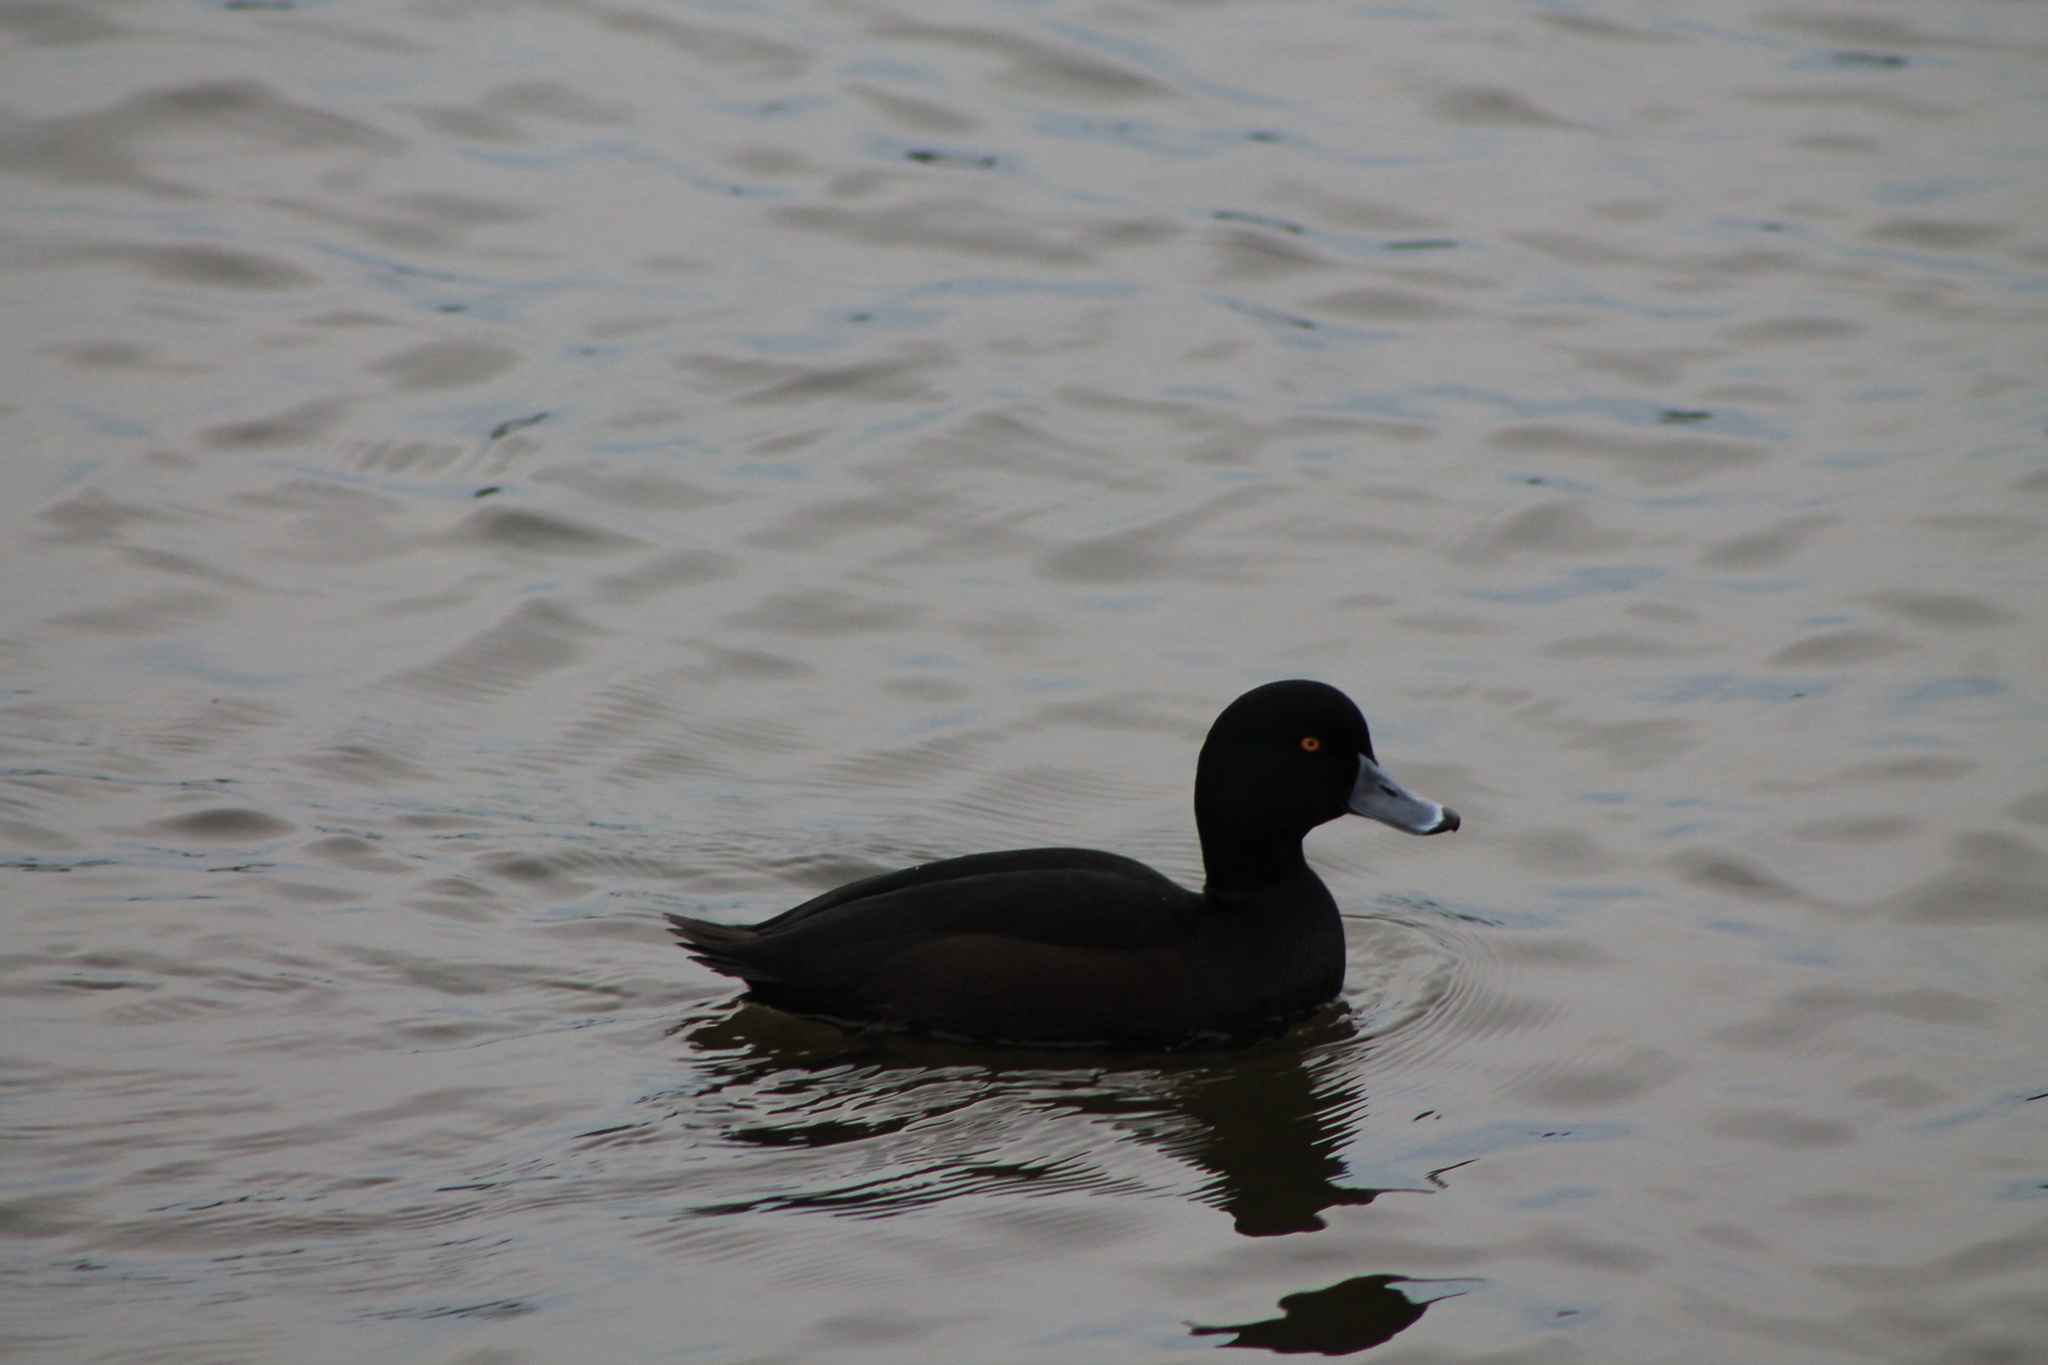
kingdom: Animalia
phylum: Chordata
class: Aves
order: Anseriformes
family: Anatidae
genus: Aythya
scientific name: Aythya novaeseelandiae
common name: New zealand scaup
